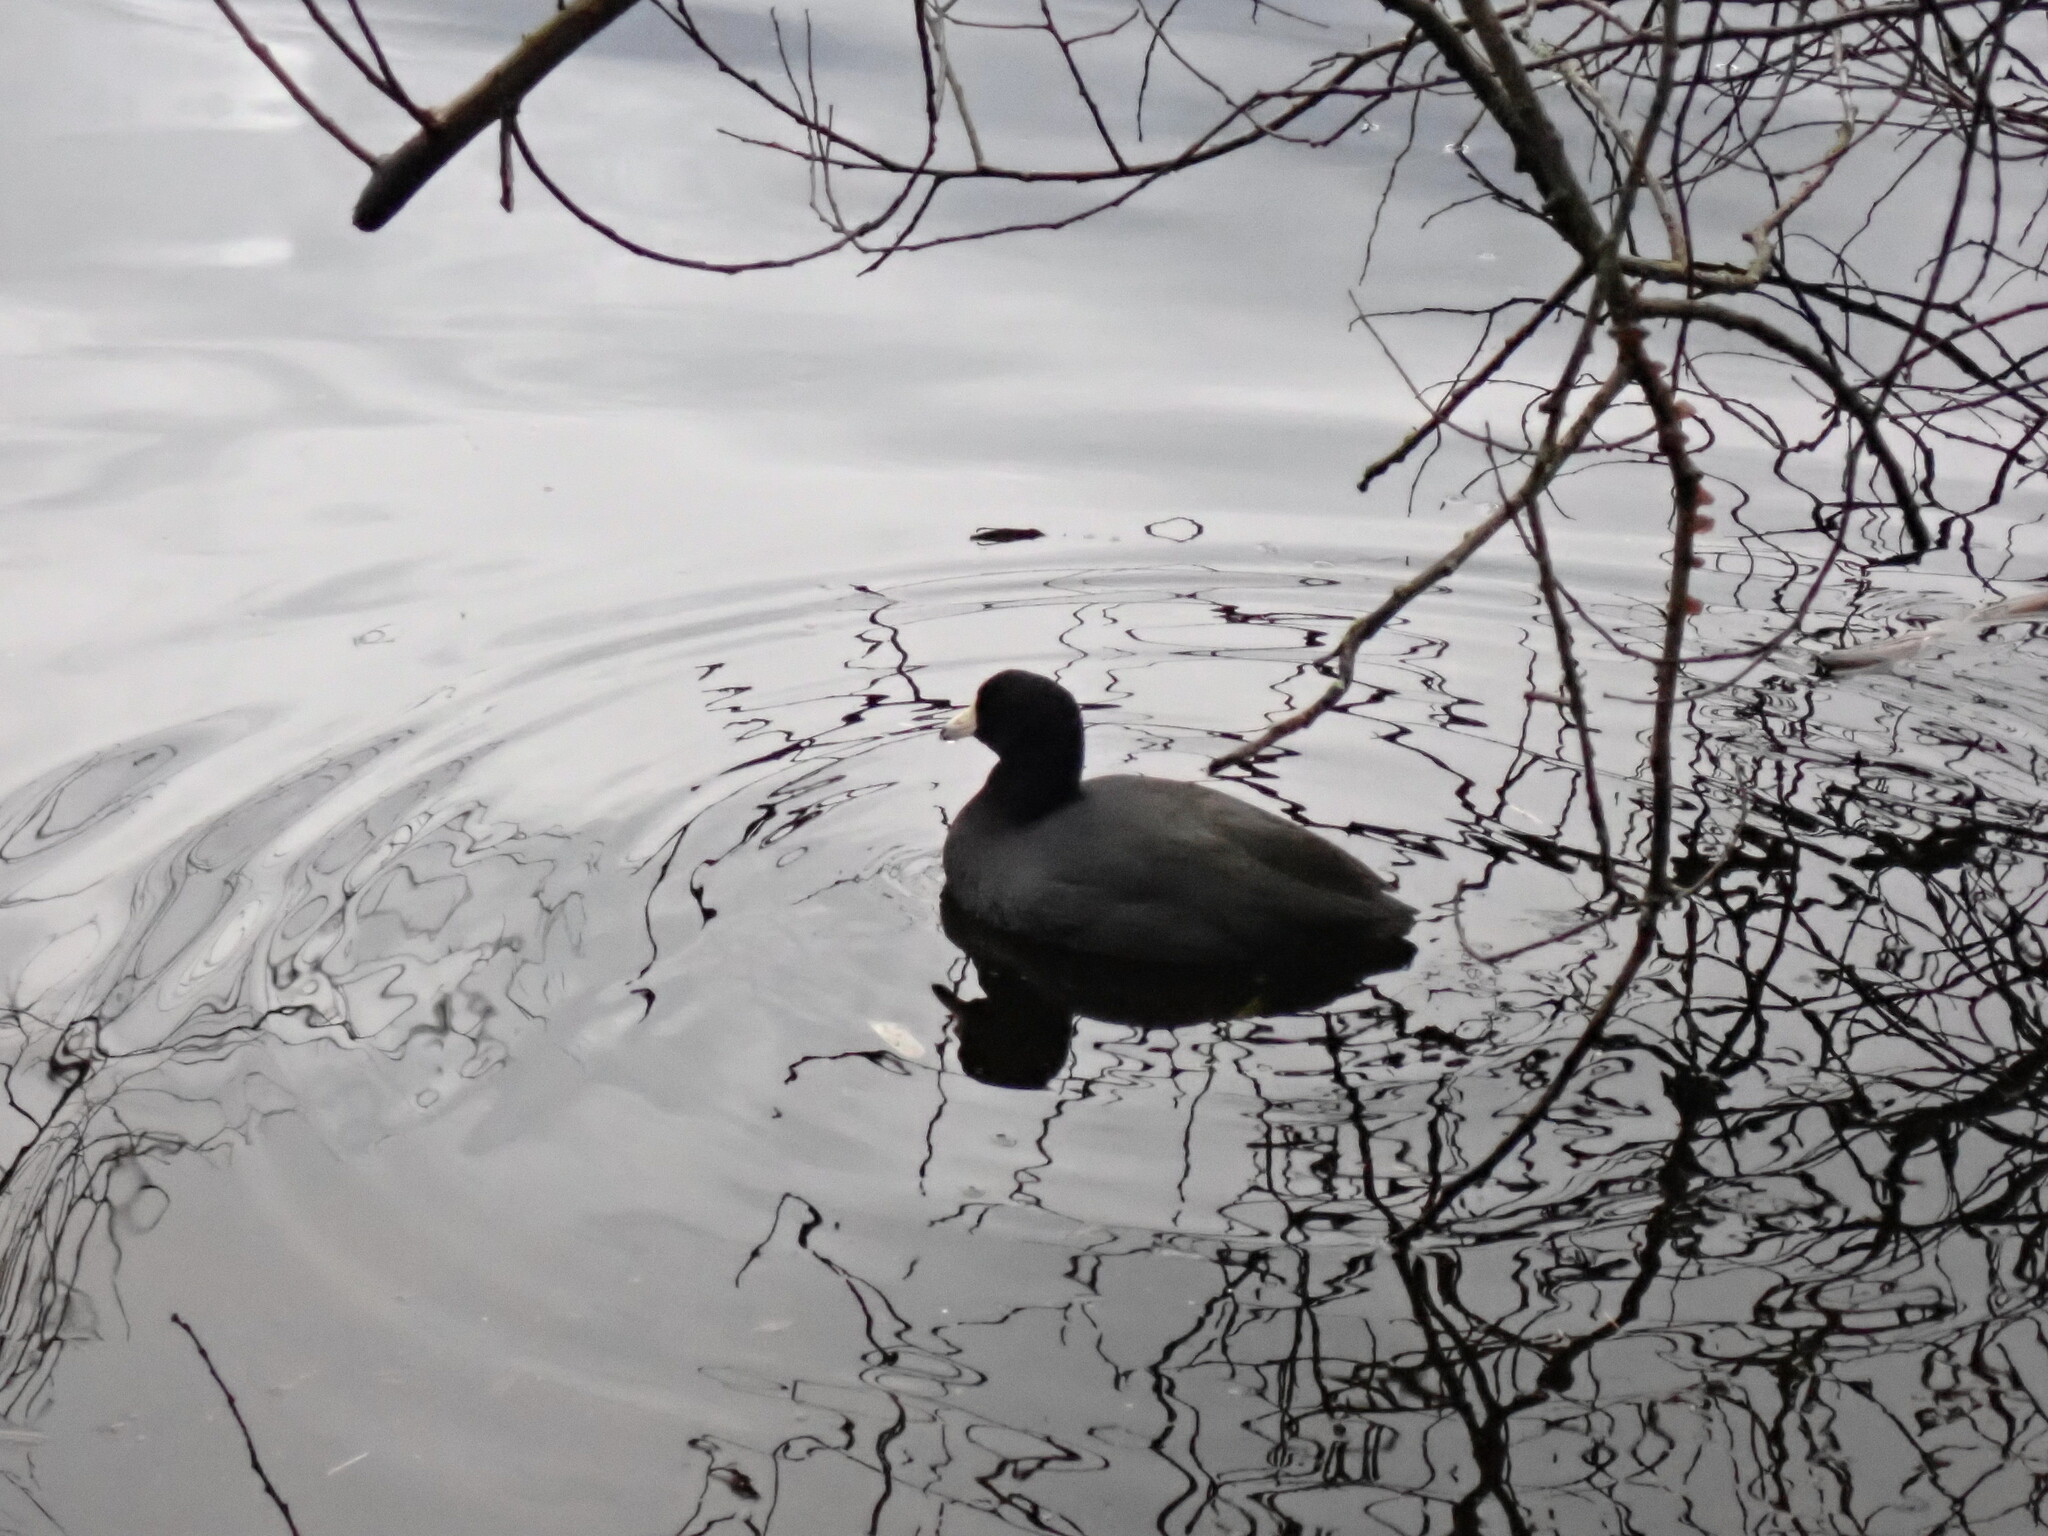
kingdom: Animalia
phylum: Chordata
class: Aves
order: Gruiformes
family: Rallidae
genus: Fulica
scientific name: Fulica americana
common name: American coot
